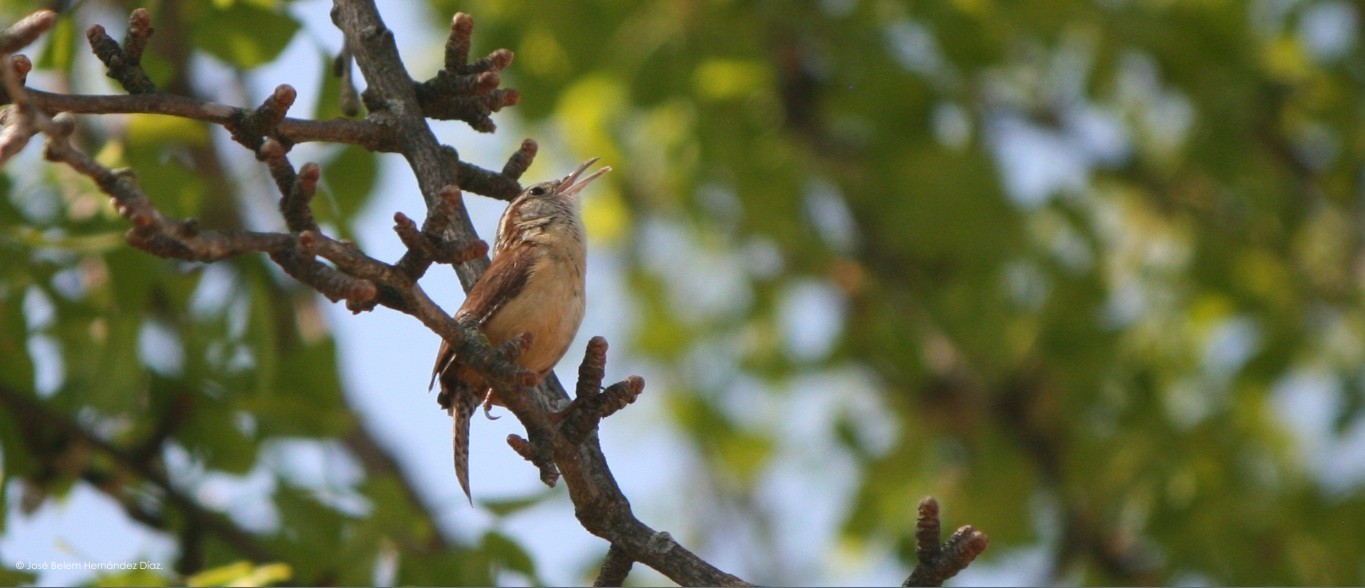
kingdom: Animalia
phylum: Chordata
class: Aves
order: Passeriformes
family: Troglodytidae
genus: Thryothorus
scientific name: Thryothorus ludovicianus
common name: Carolina wren
